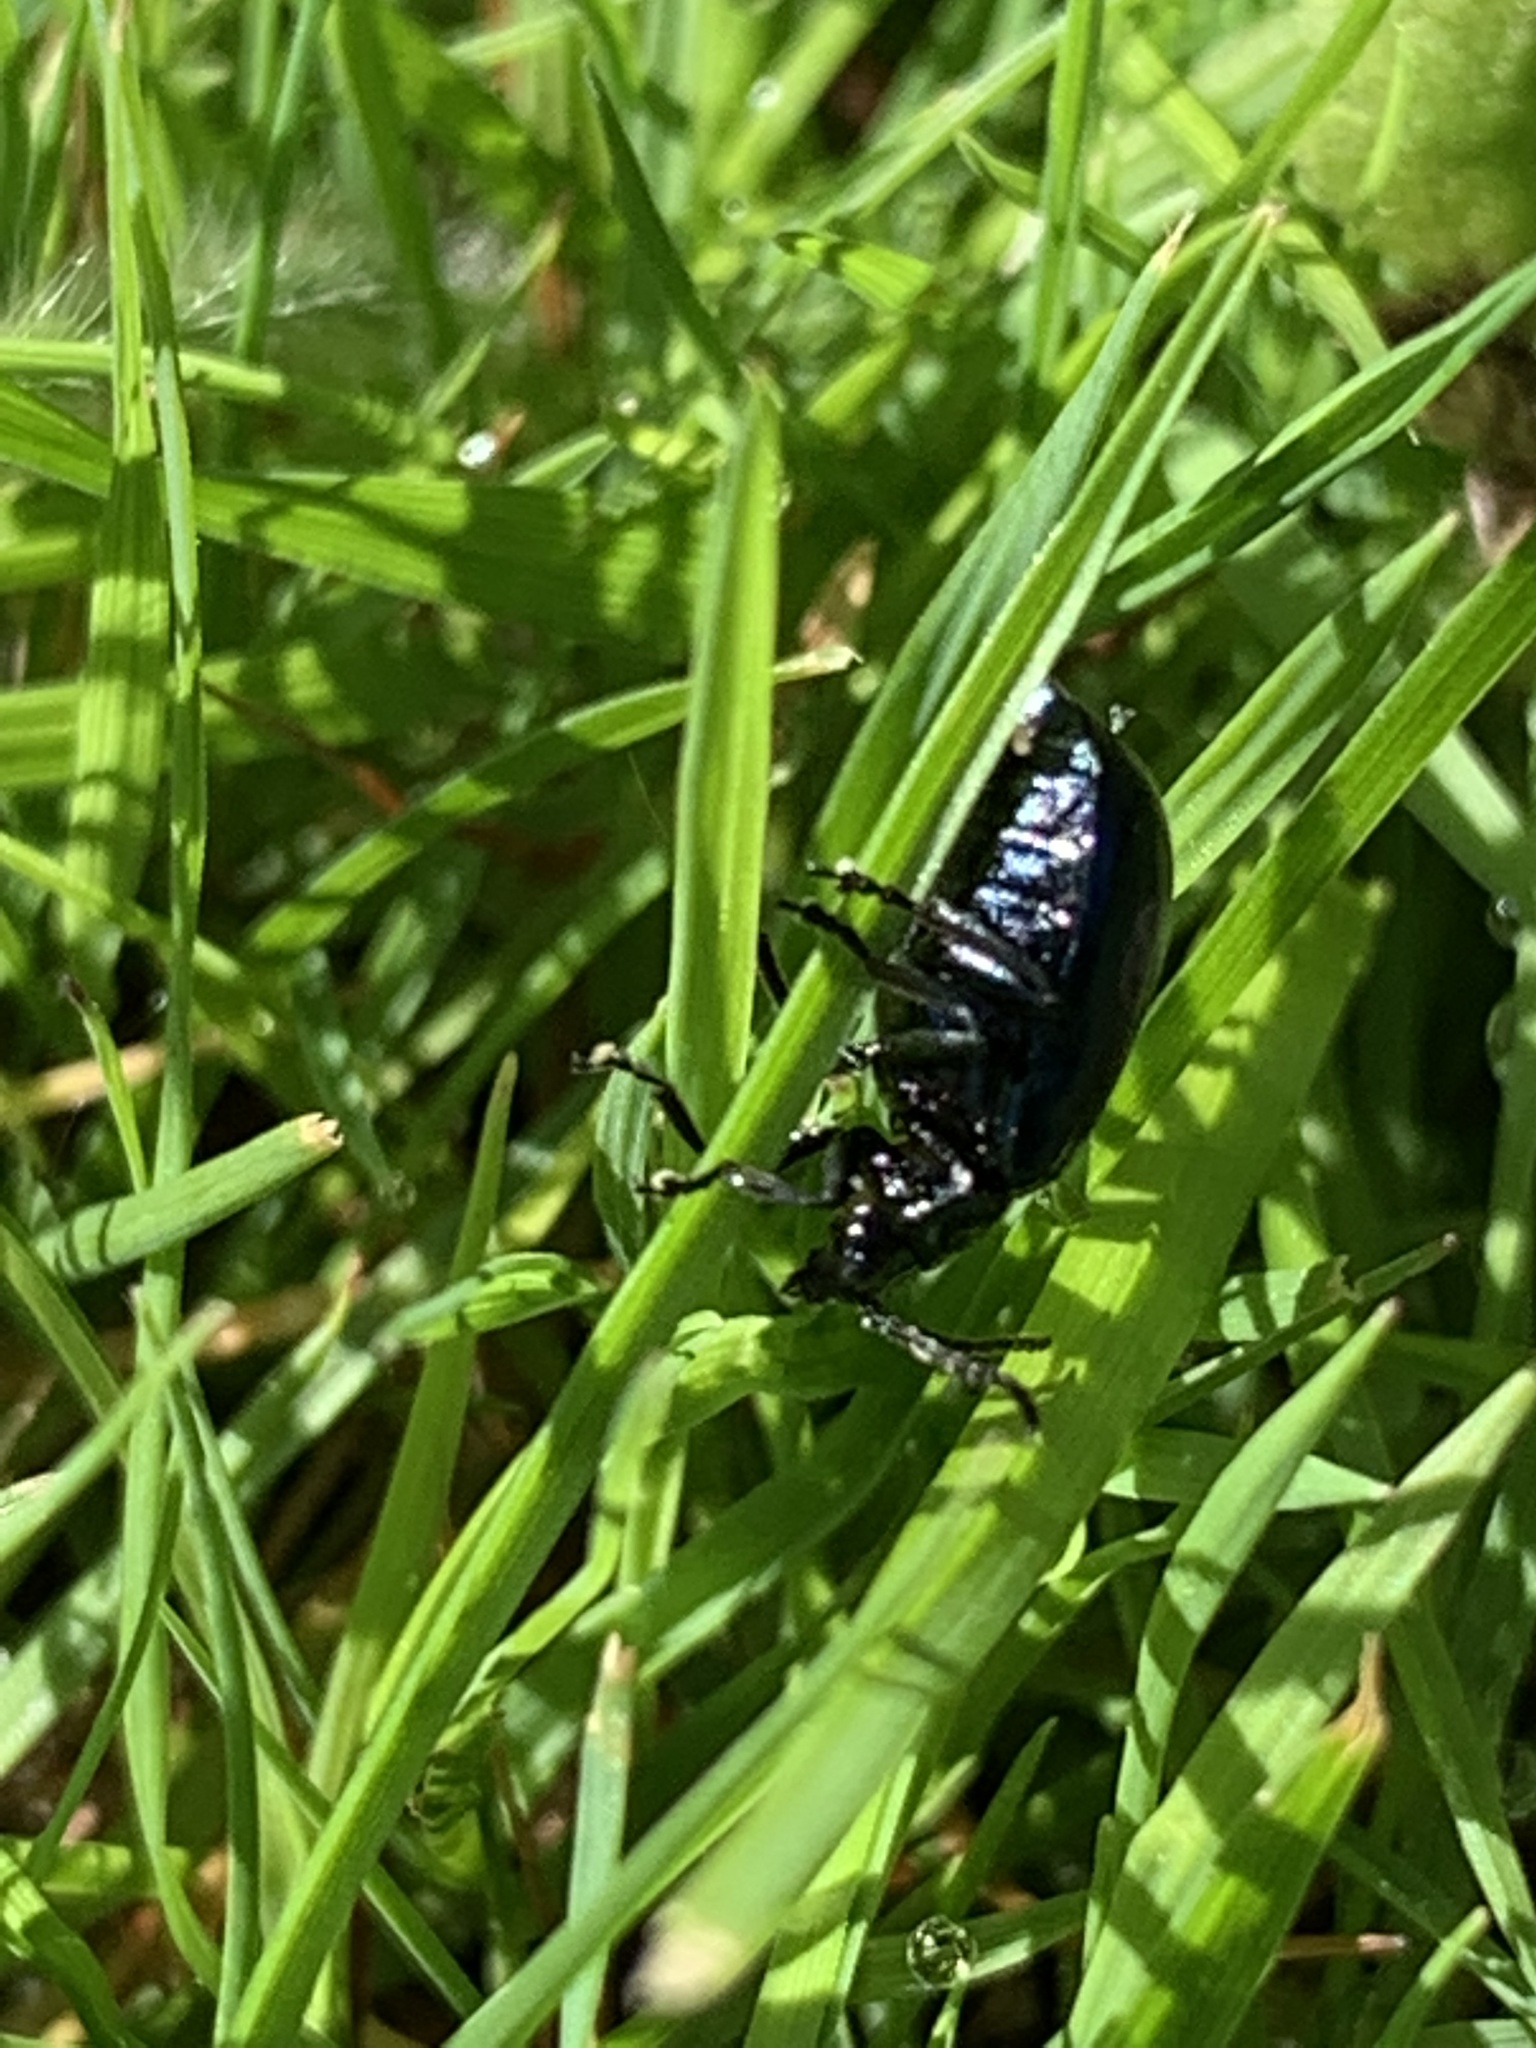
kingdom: Animalia
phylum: Arthropoda
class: Insecta
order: Coleoptera
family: Chrysomelidae
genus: Agelastica
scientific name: Agelastica alni
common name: Alder leaf beetle
